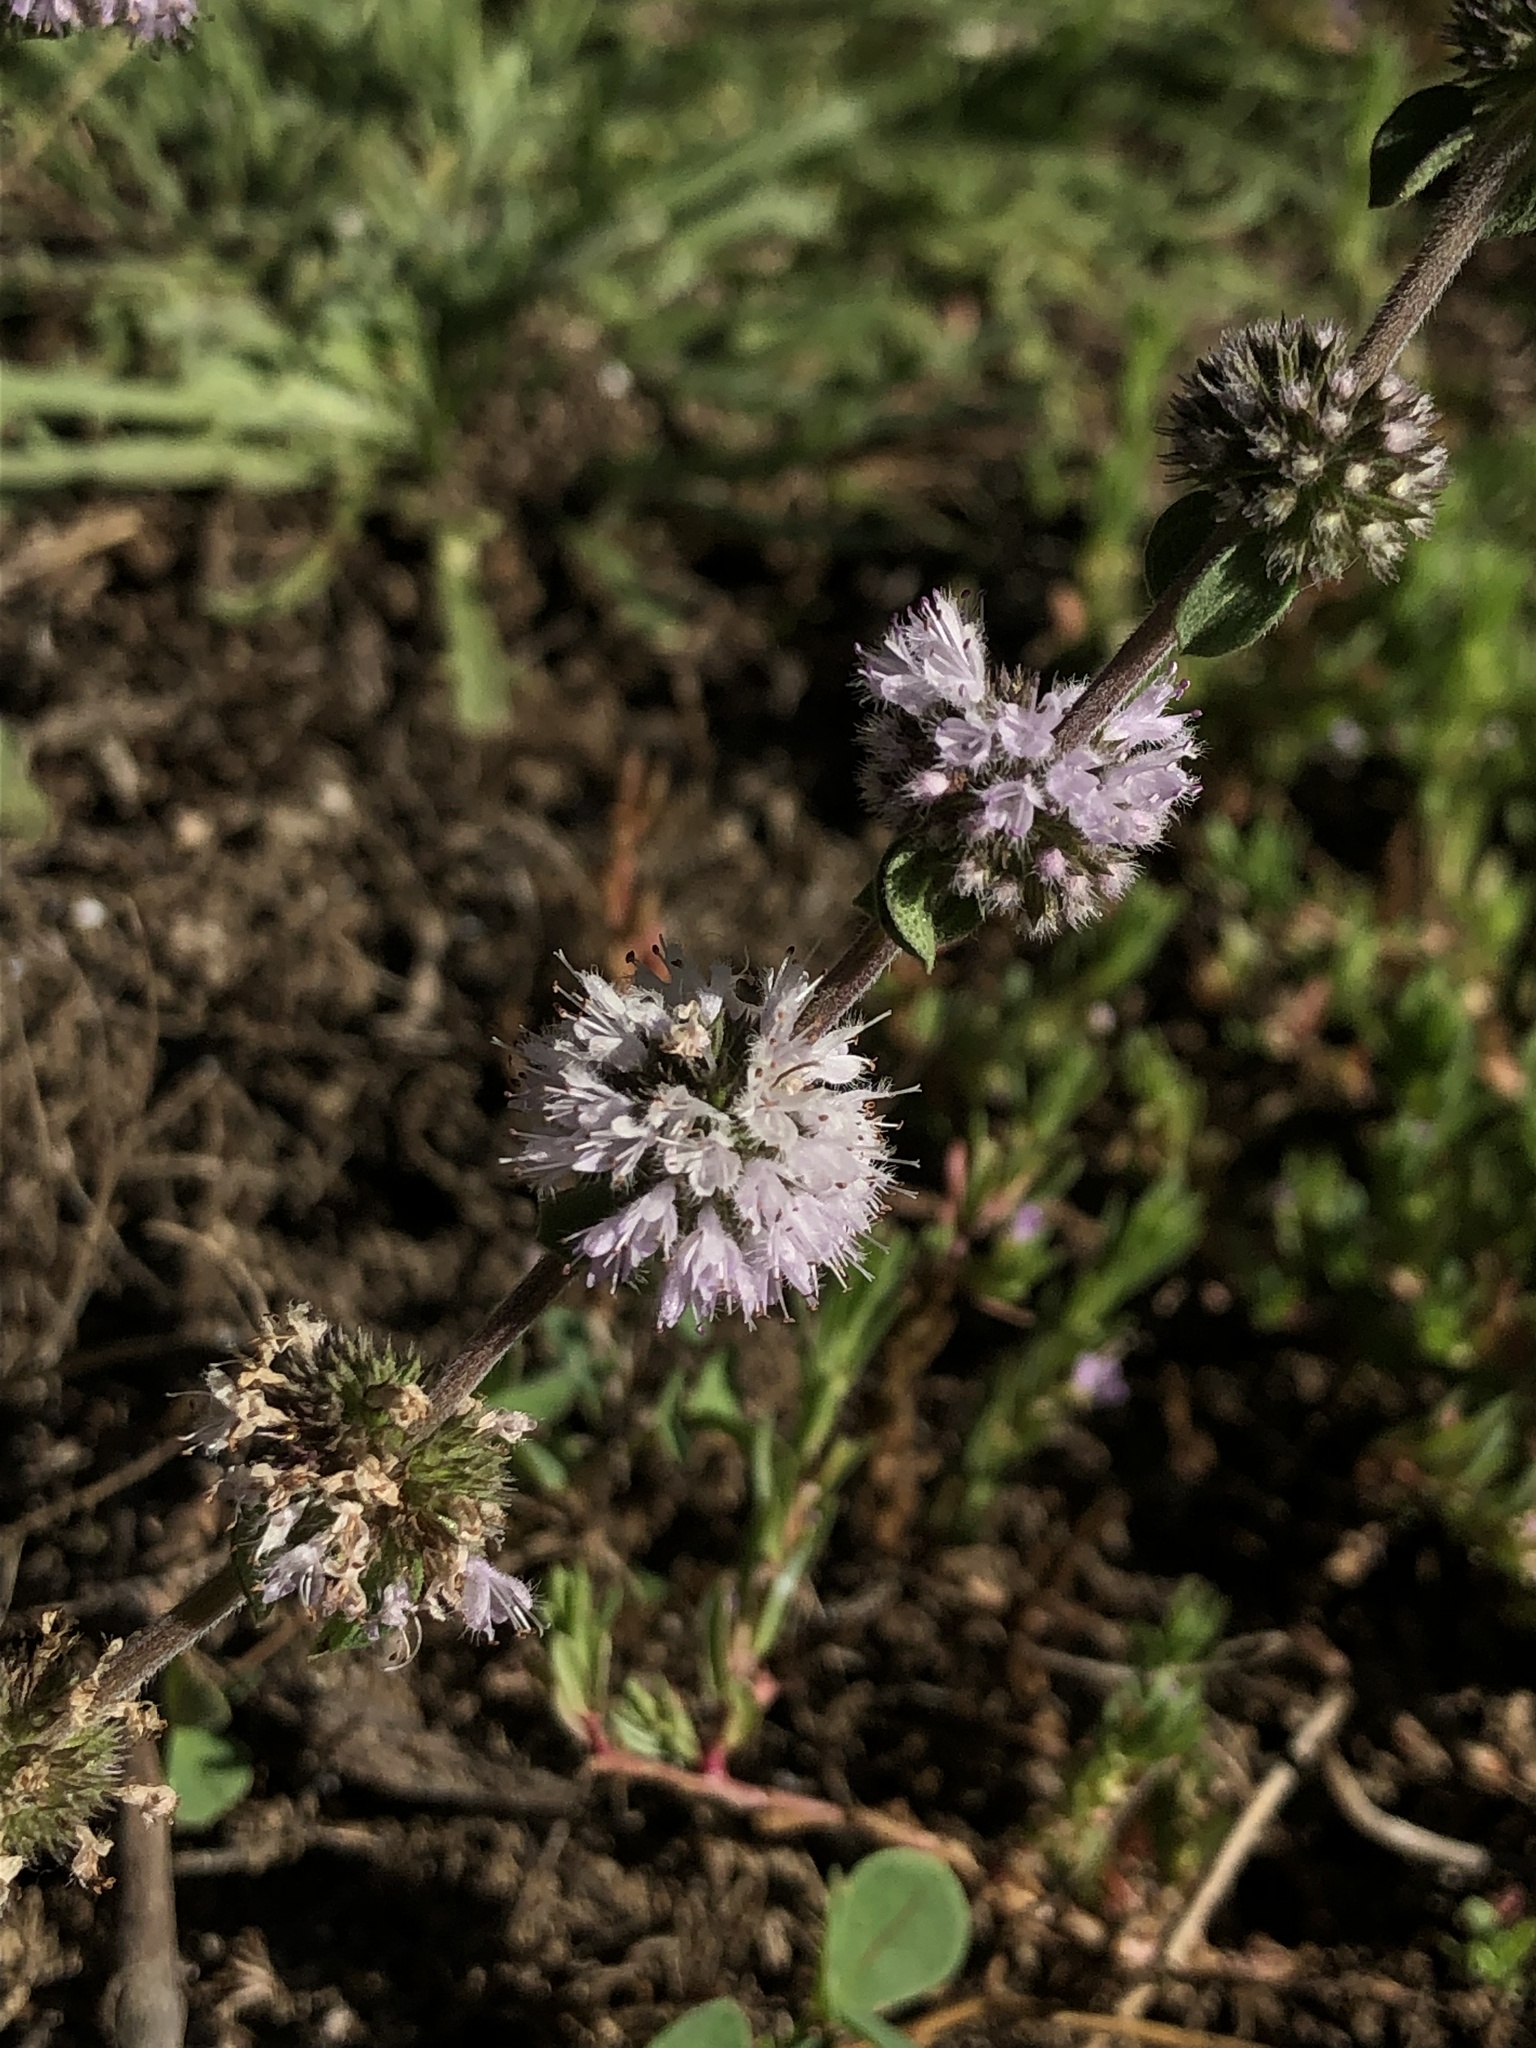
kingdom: Plantae
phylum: Tracheophyta
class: Magnoliopsida
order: Lamiales
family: Lamiaceae
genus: Mentha
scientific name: Mentha pulegium
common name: Pennyroyal
